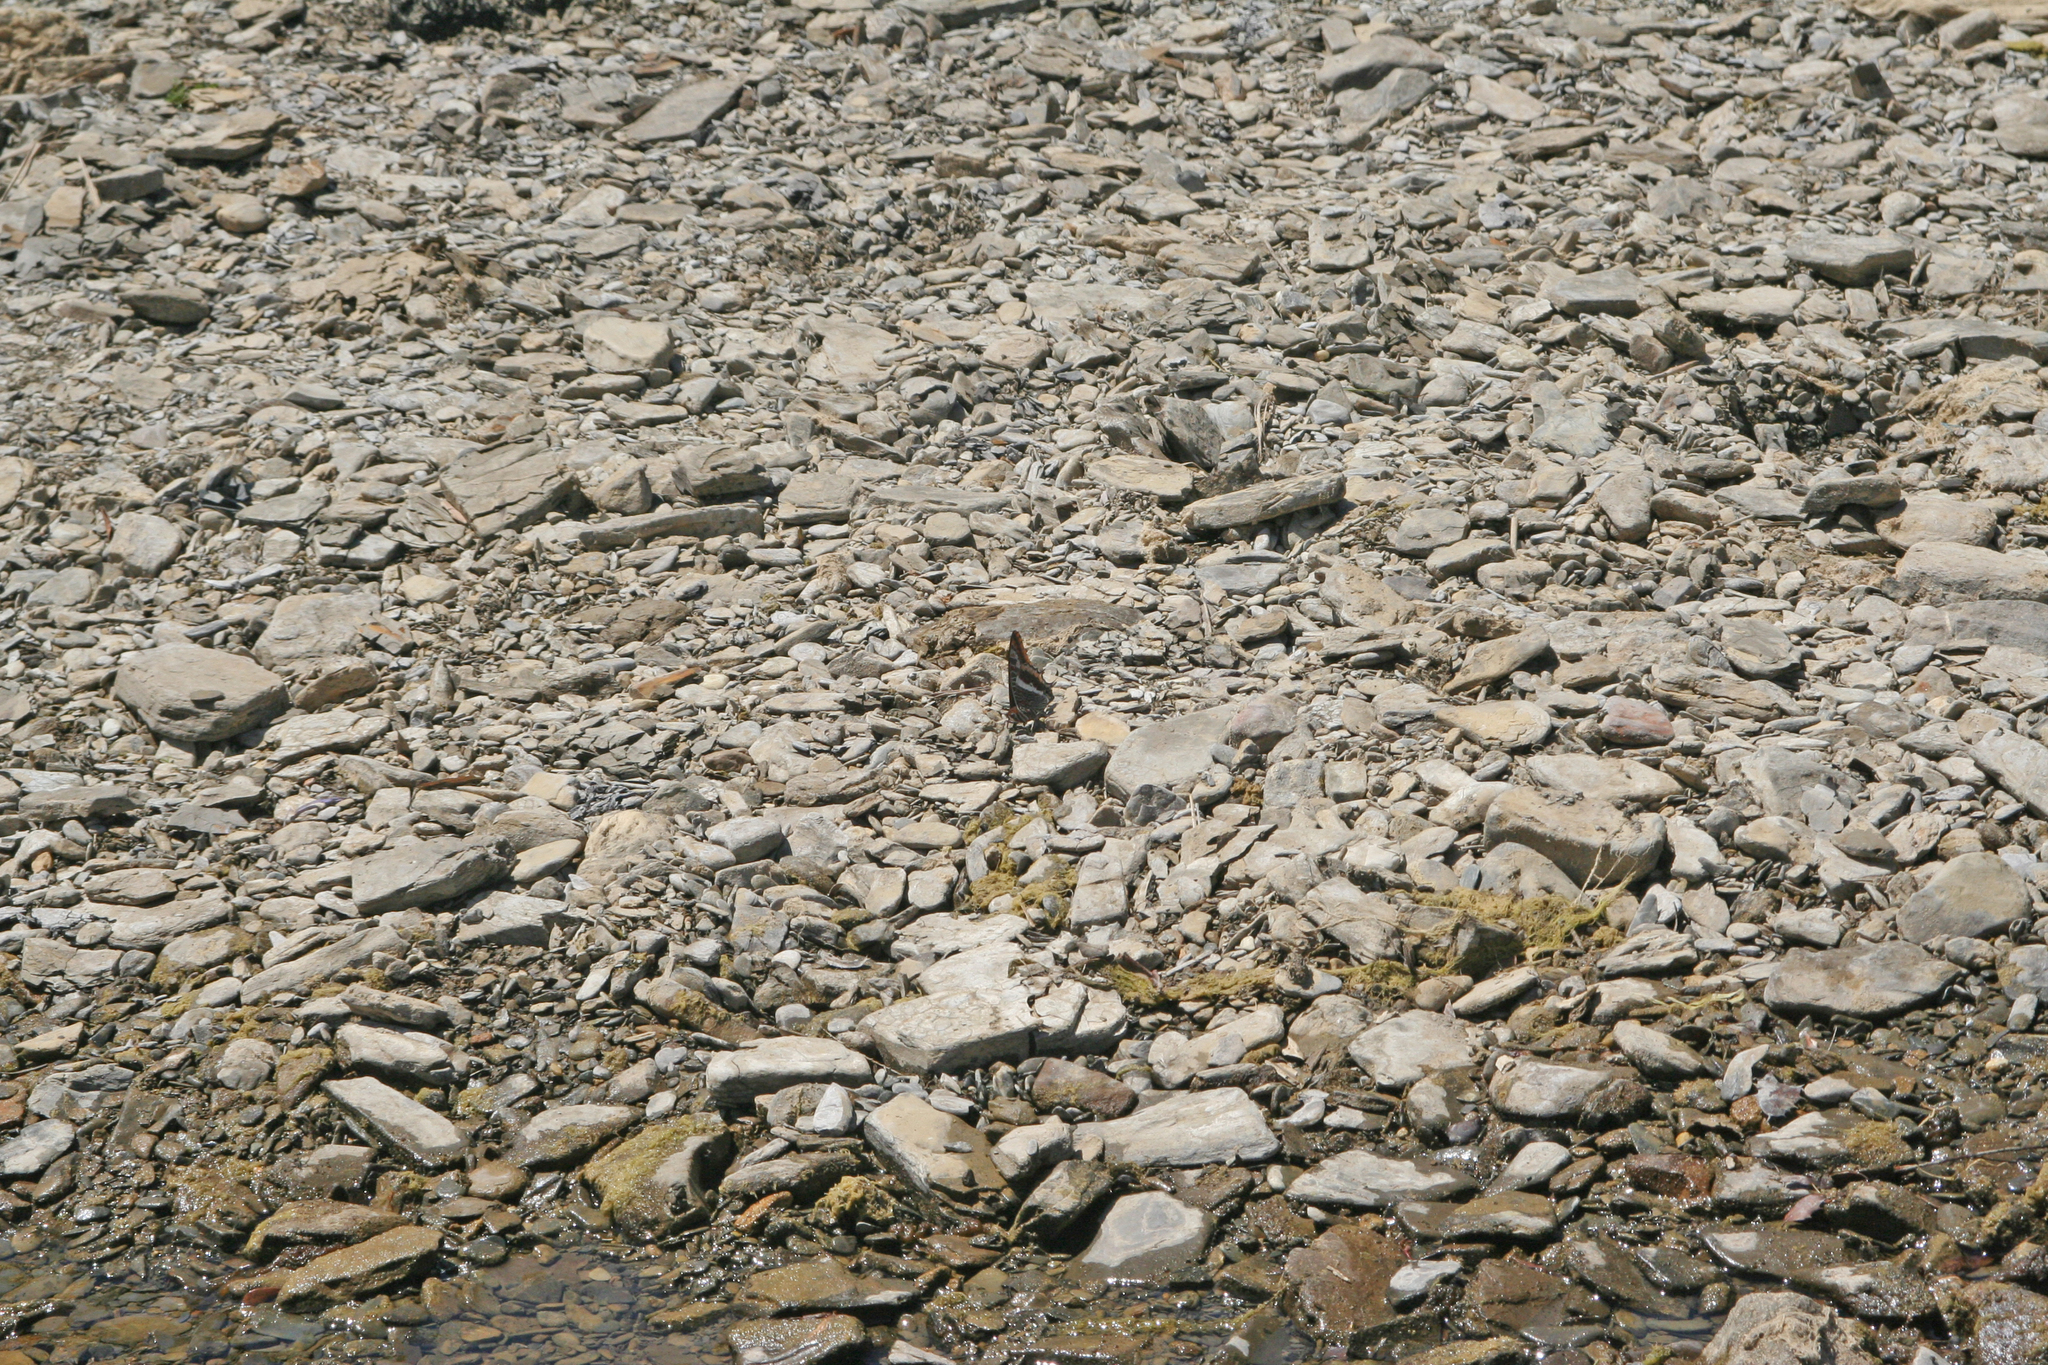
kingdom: Animalia
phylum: Arthropoda
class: Insecta
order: Lepidoptera
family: Nymphalidae
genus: Charaxes
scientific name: Charaxes jasius
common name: Two tailed pasha
